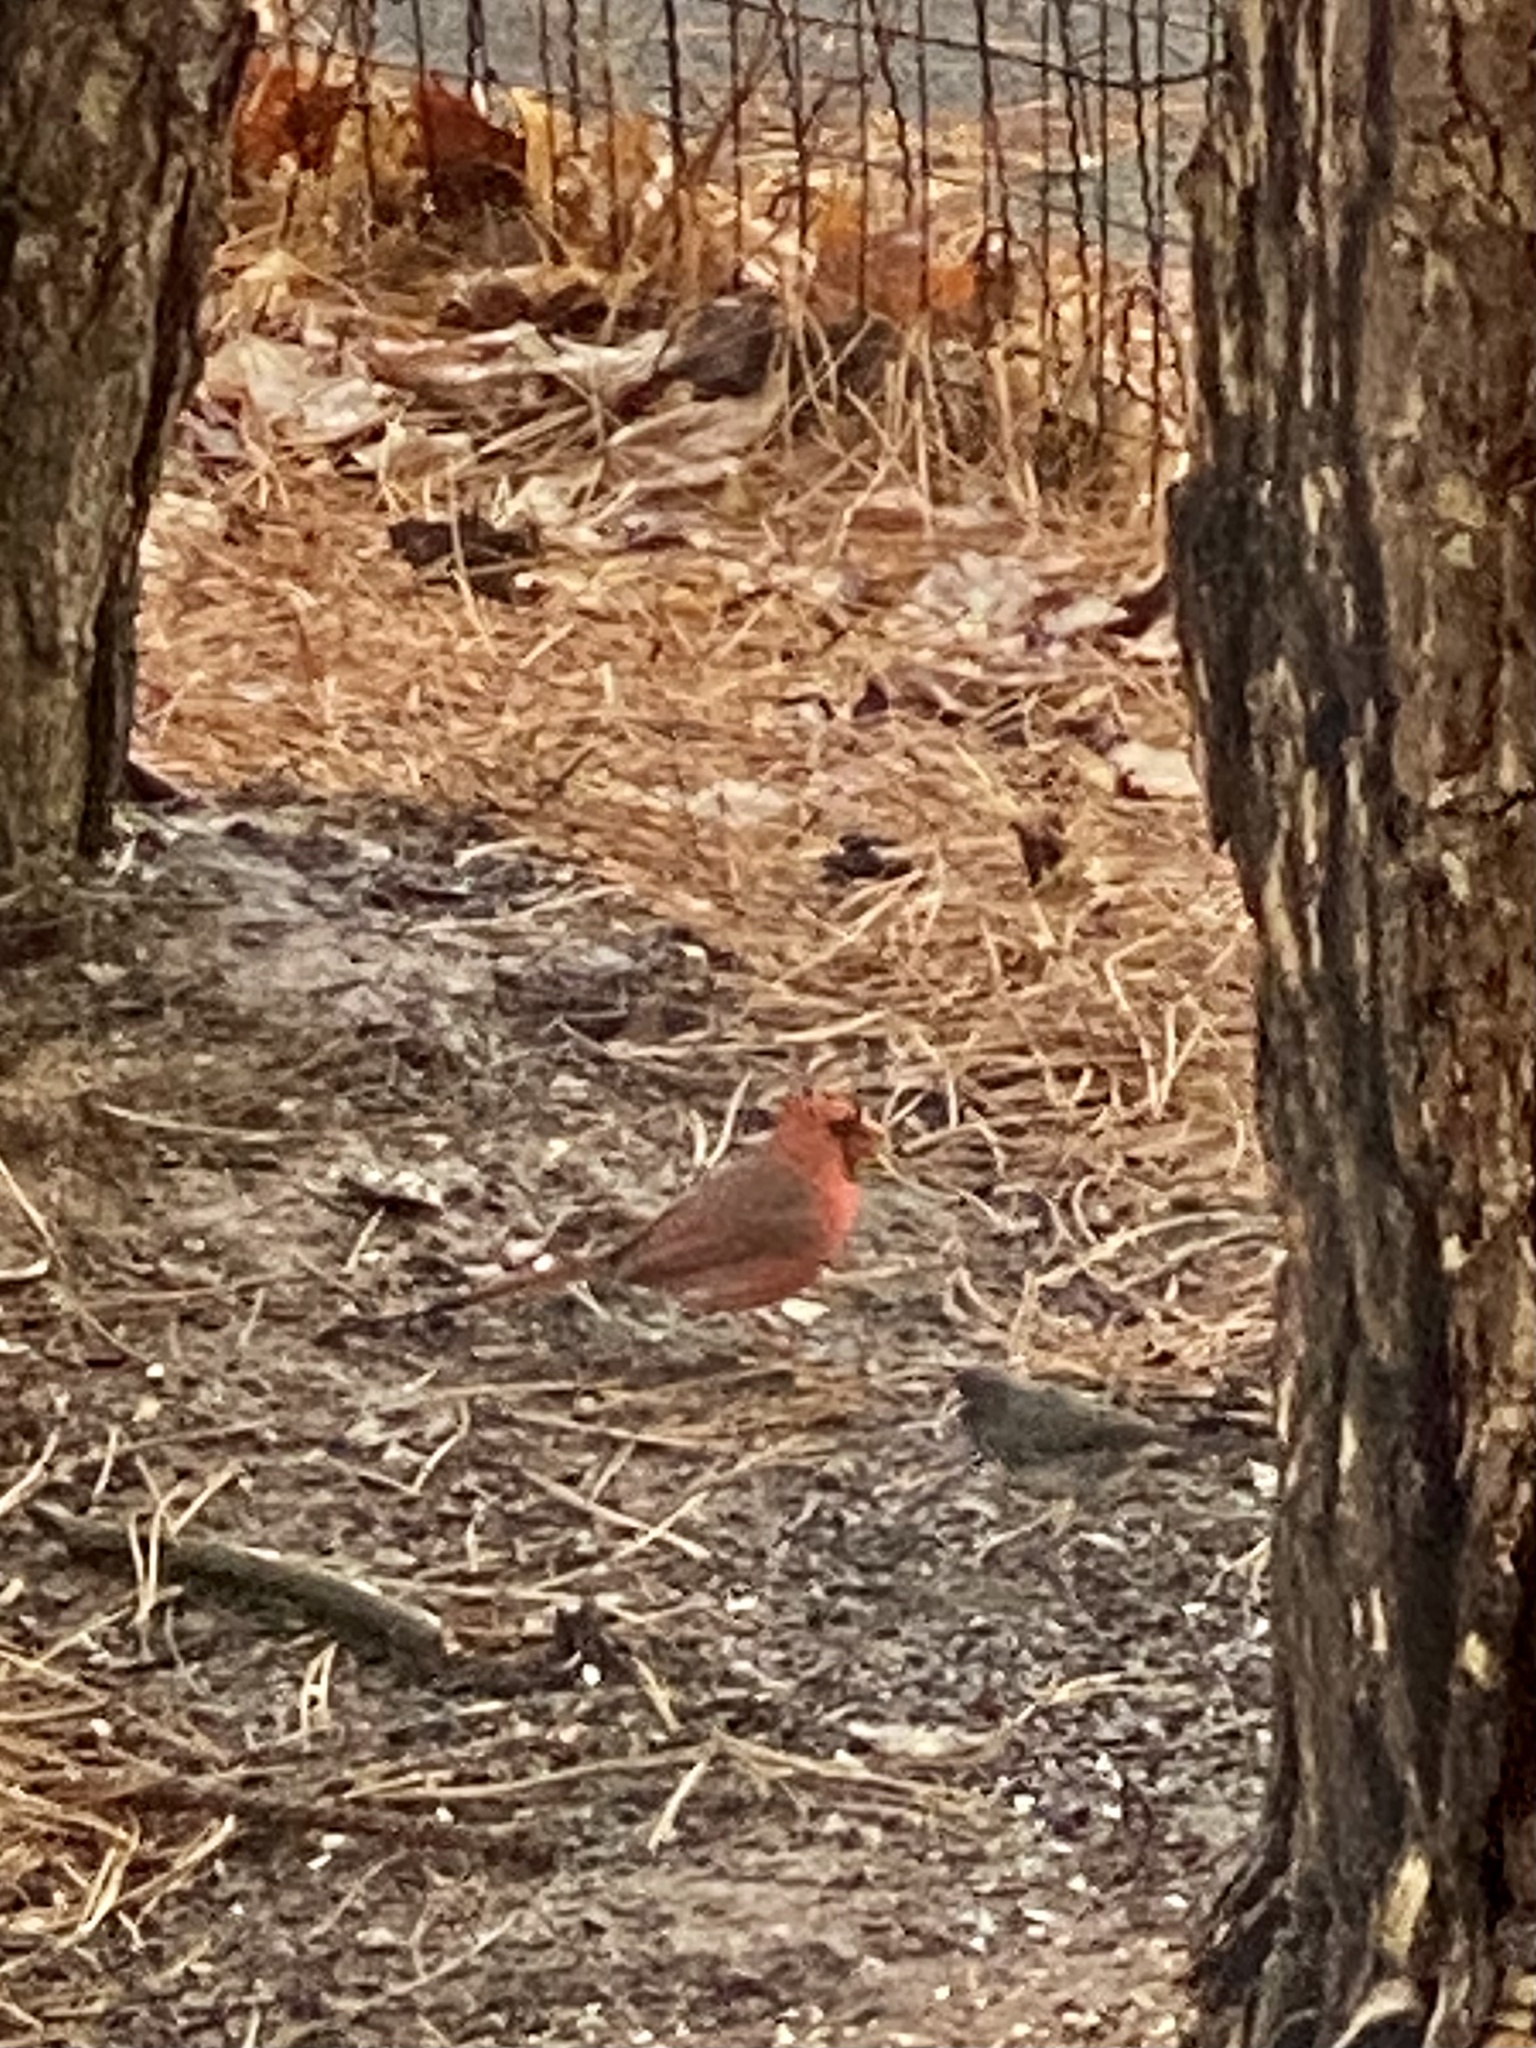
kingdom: Animalia
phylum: Chordata
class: Aves
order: Passeriformes
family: Cardinalidae
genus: Cardinalis
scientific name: Cardinalis cardinalis
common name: Northern cardinal
